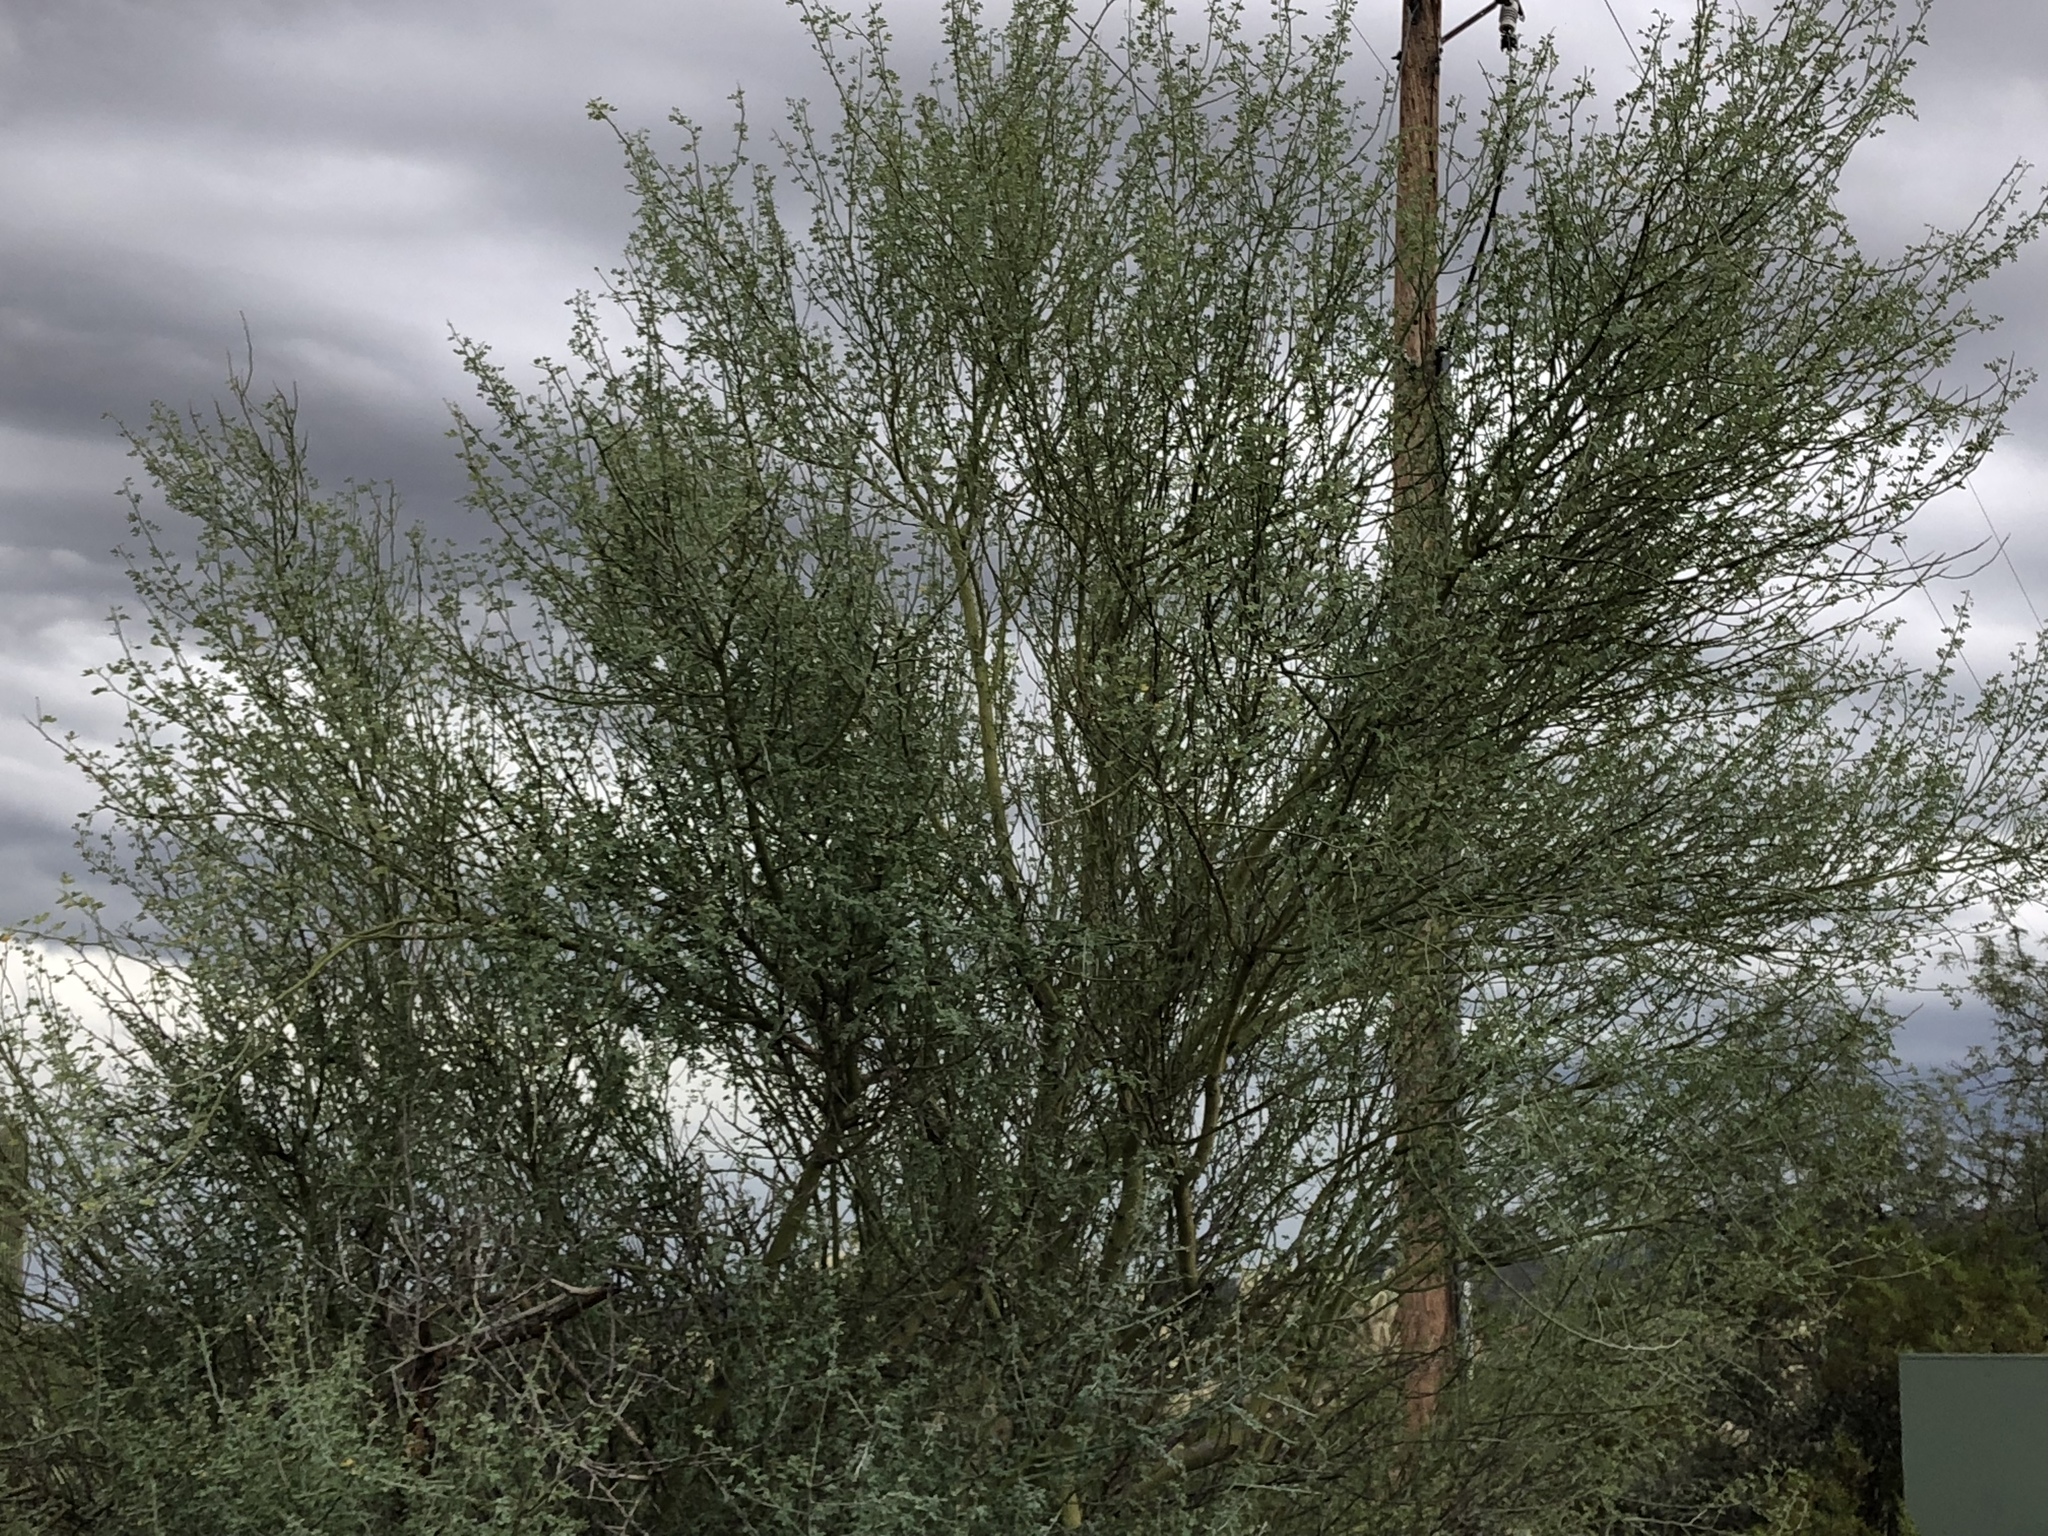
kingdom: Plantae
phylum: Tracheophyta
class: Magnoliopsida
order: Fabales
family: Fabaceae
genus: Parkinsonia
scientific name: Parkinsonia florida
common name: Blue paloverde
